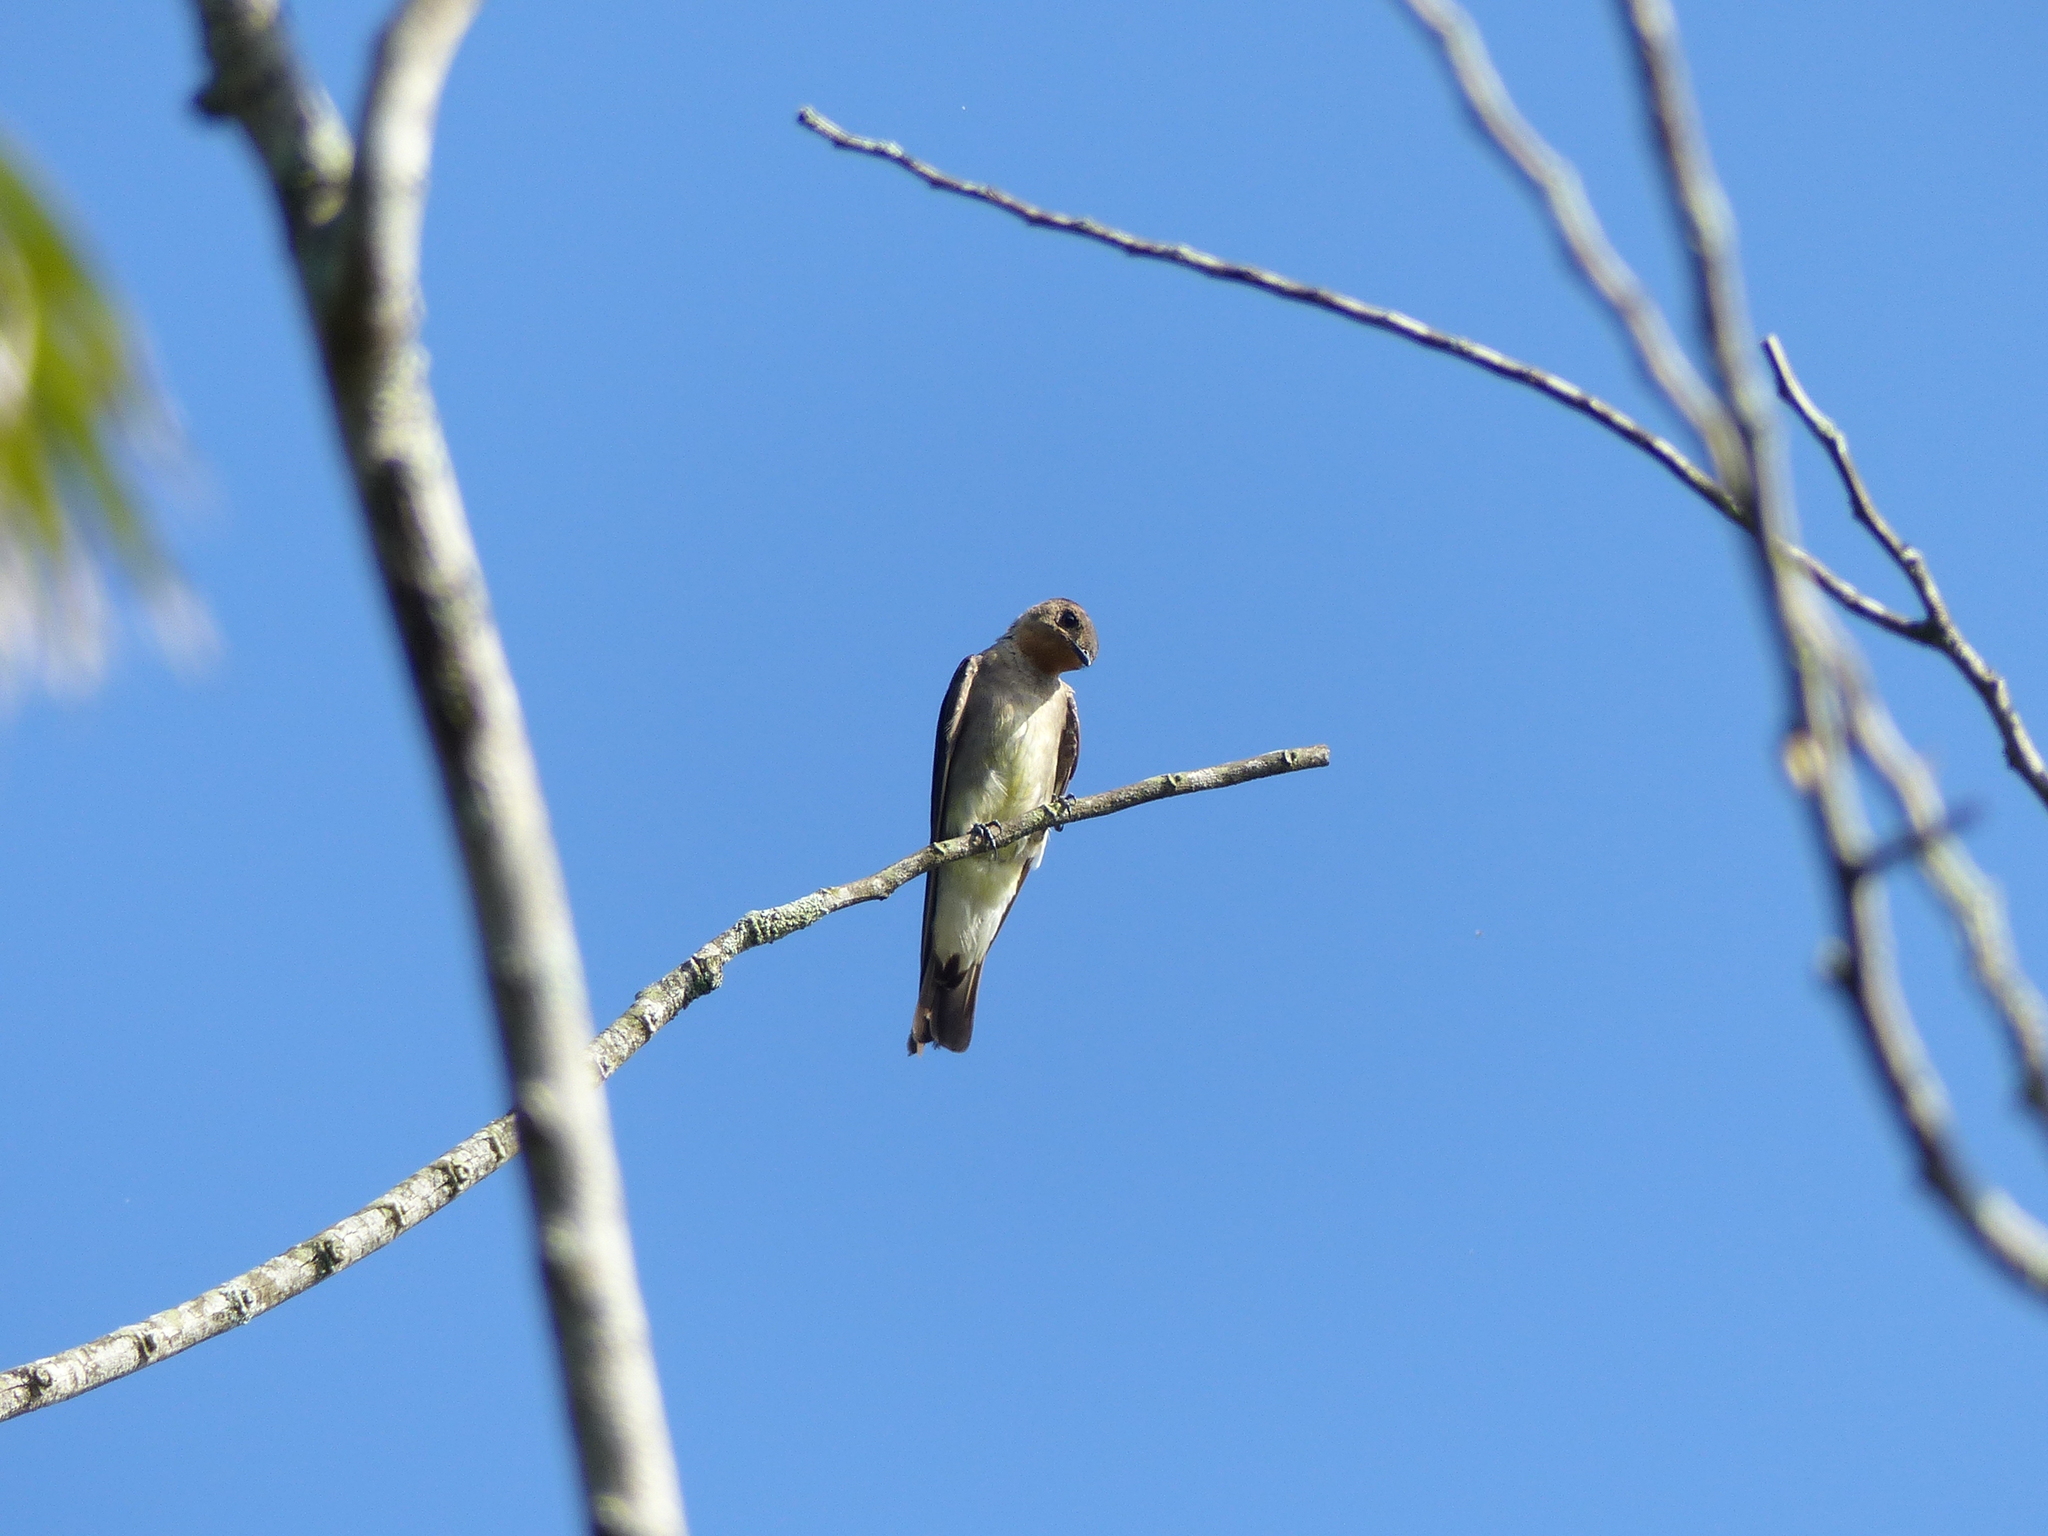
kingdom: Animalia
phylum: Chordata
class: Aves
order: Passeriformes
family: Hirundinidae
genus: Stelgidopteryx
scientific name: Stelgidopteryx ruficollis
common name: Southern rough-winged swallow
